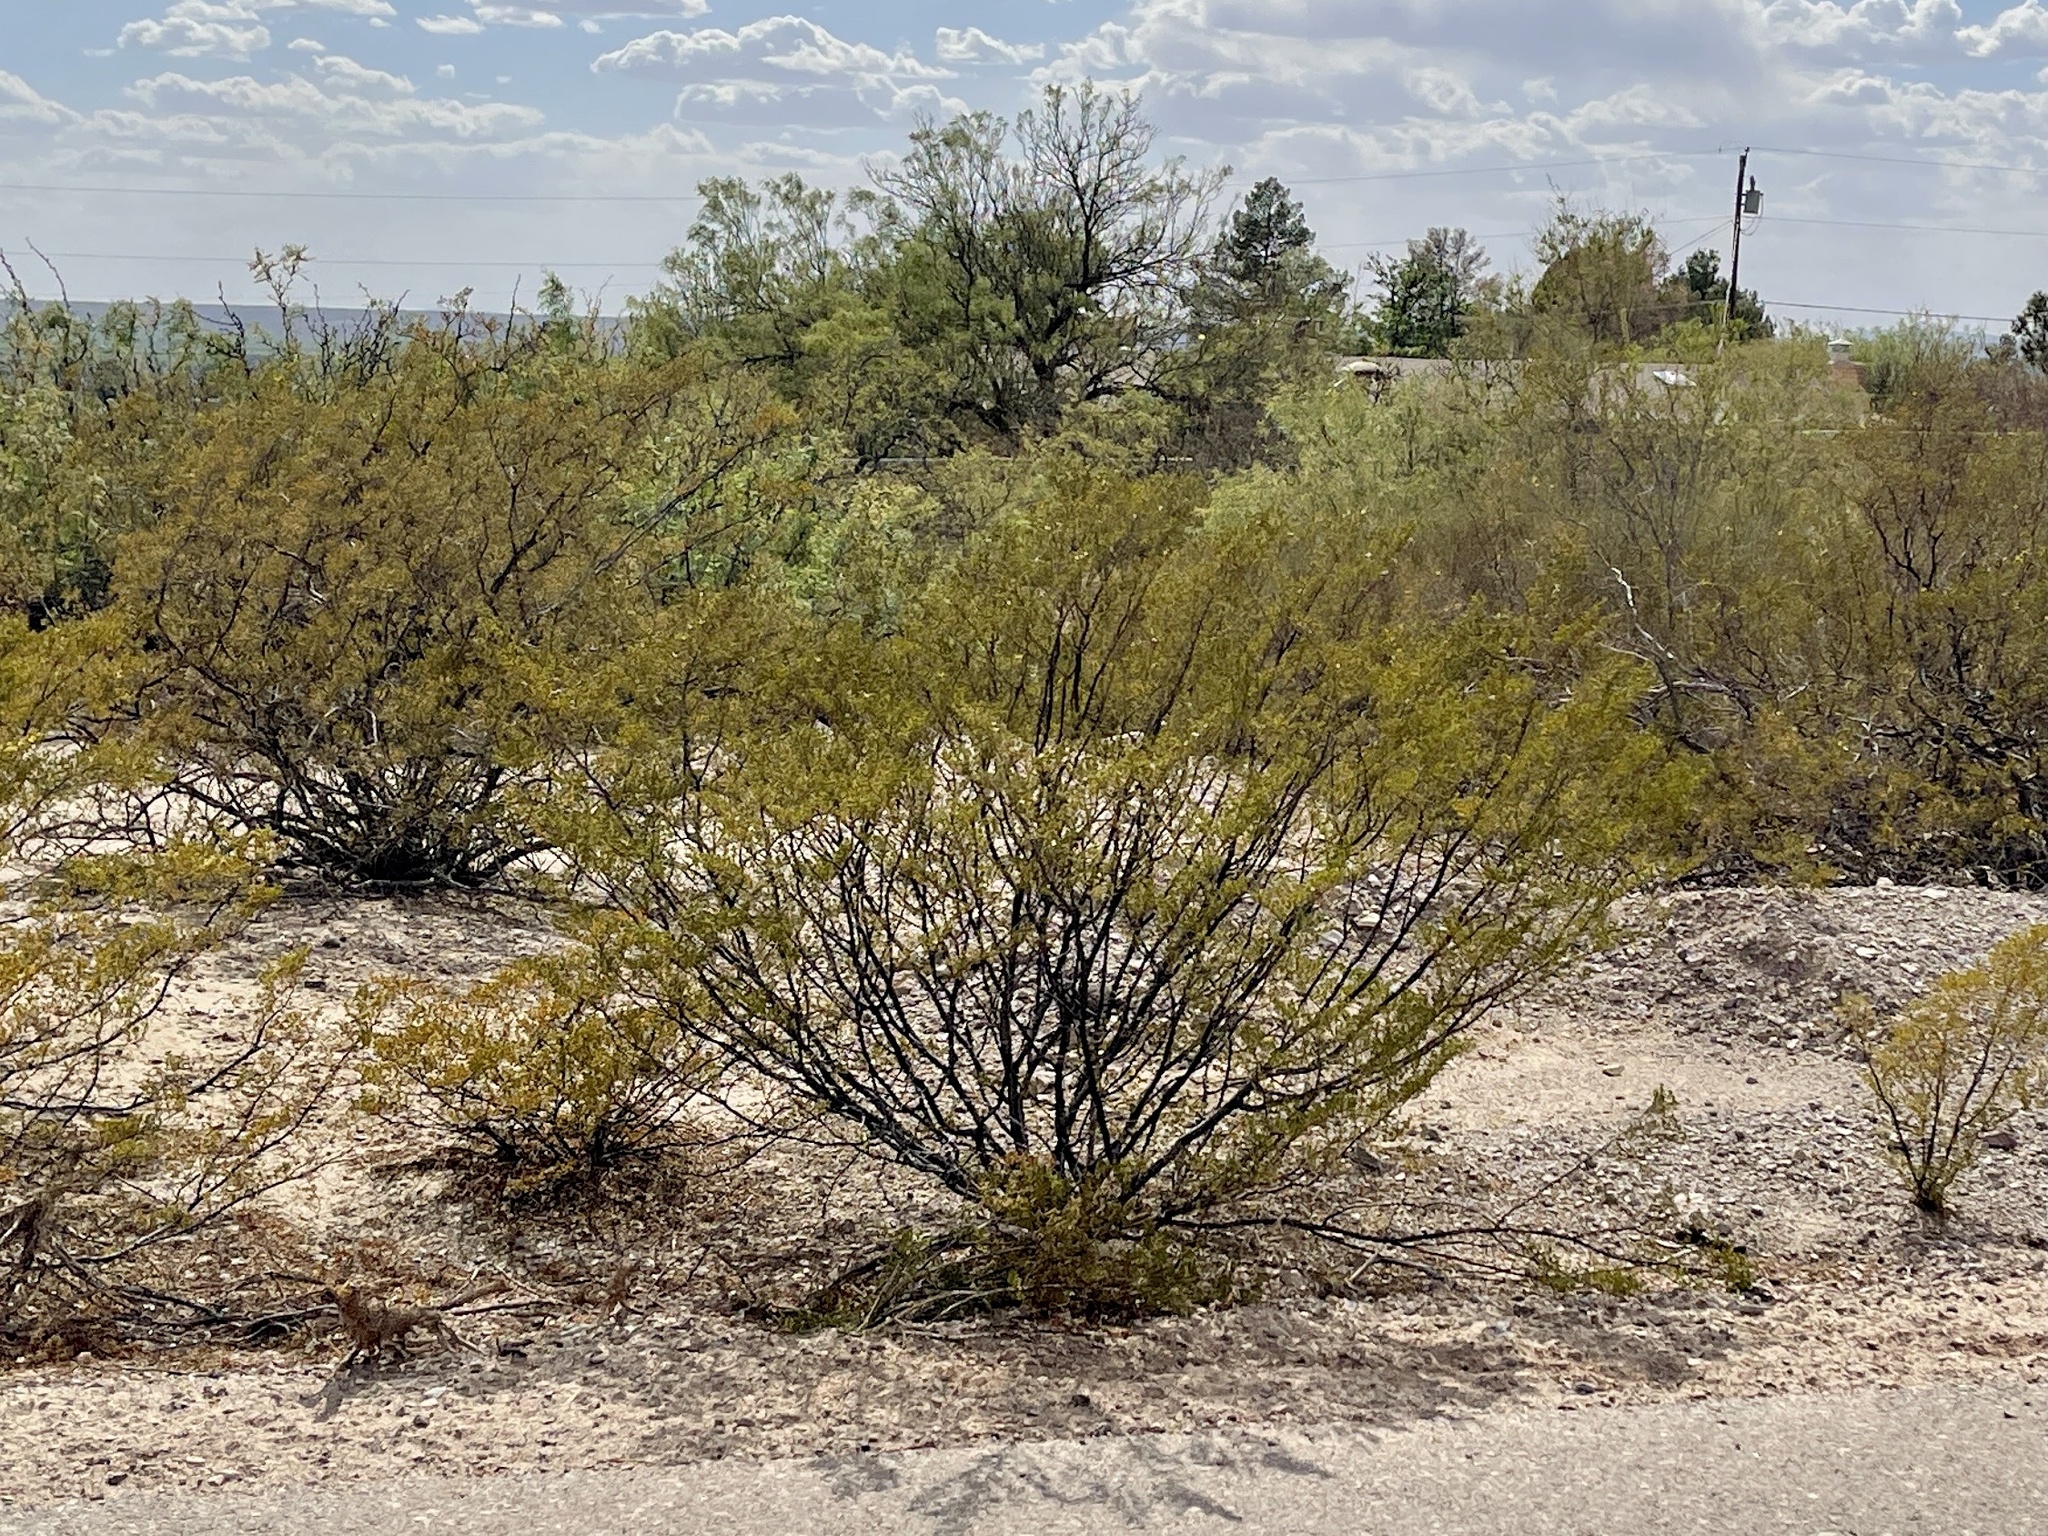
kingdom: Plantae
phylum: Tracheophyta
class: Magnoliopsida
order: Zygophyllales
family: Zygophyllaceae
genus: Larrea
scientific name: Larrea tridentata
